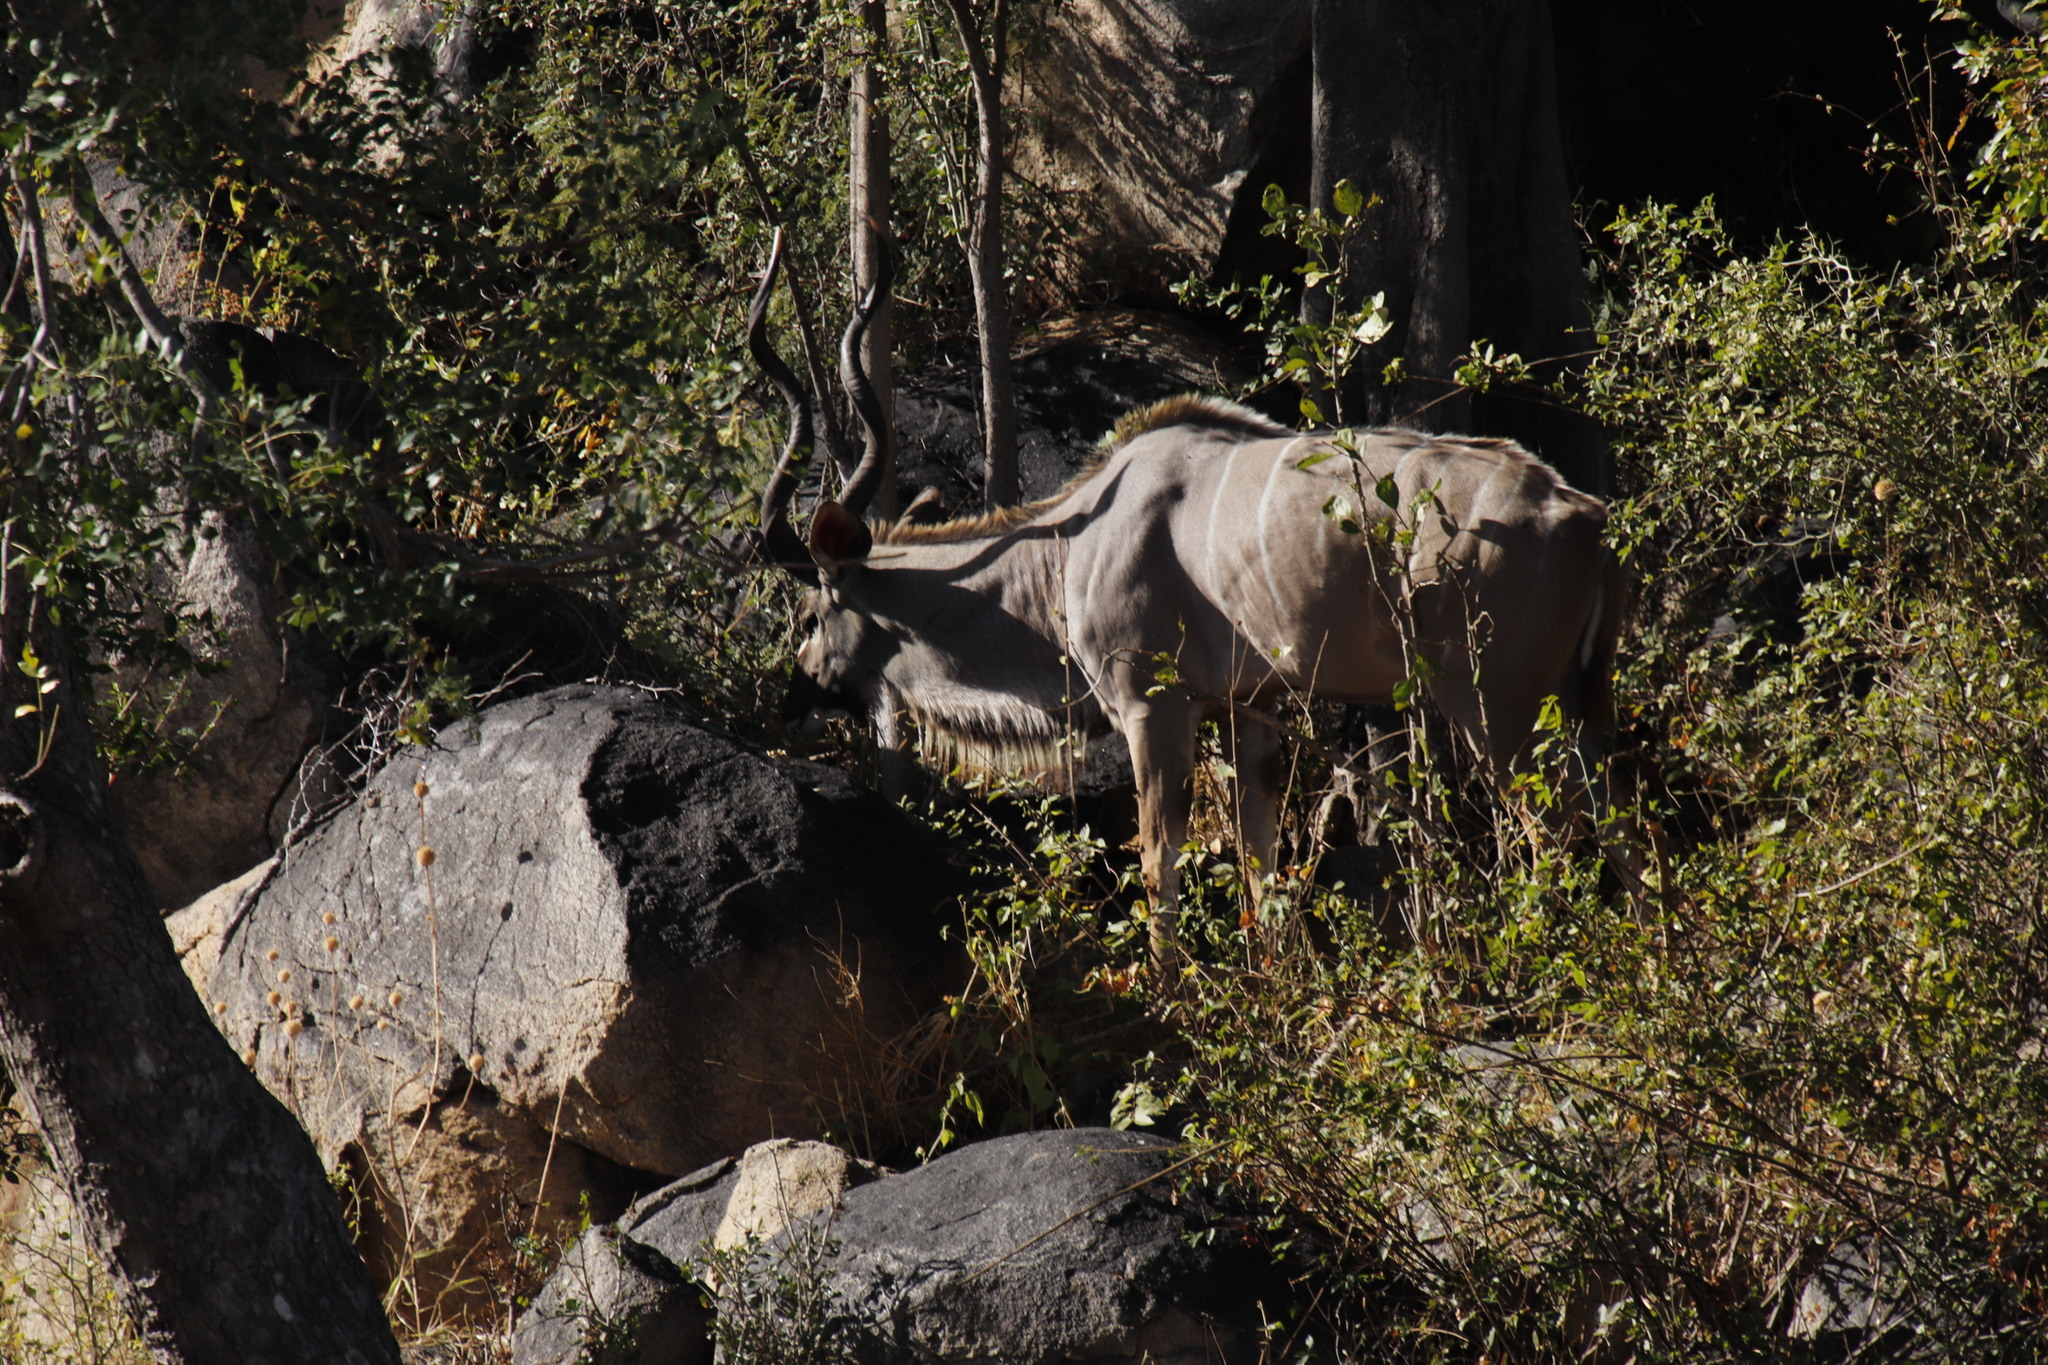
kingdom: Animalia
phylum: Chordata
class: Mammalia
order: Artiodactyla
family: Bovidae
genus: Tragelaphus
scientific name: Tragelaphus strepsiceros
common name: Greater kudu
